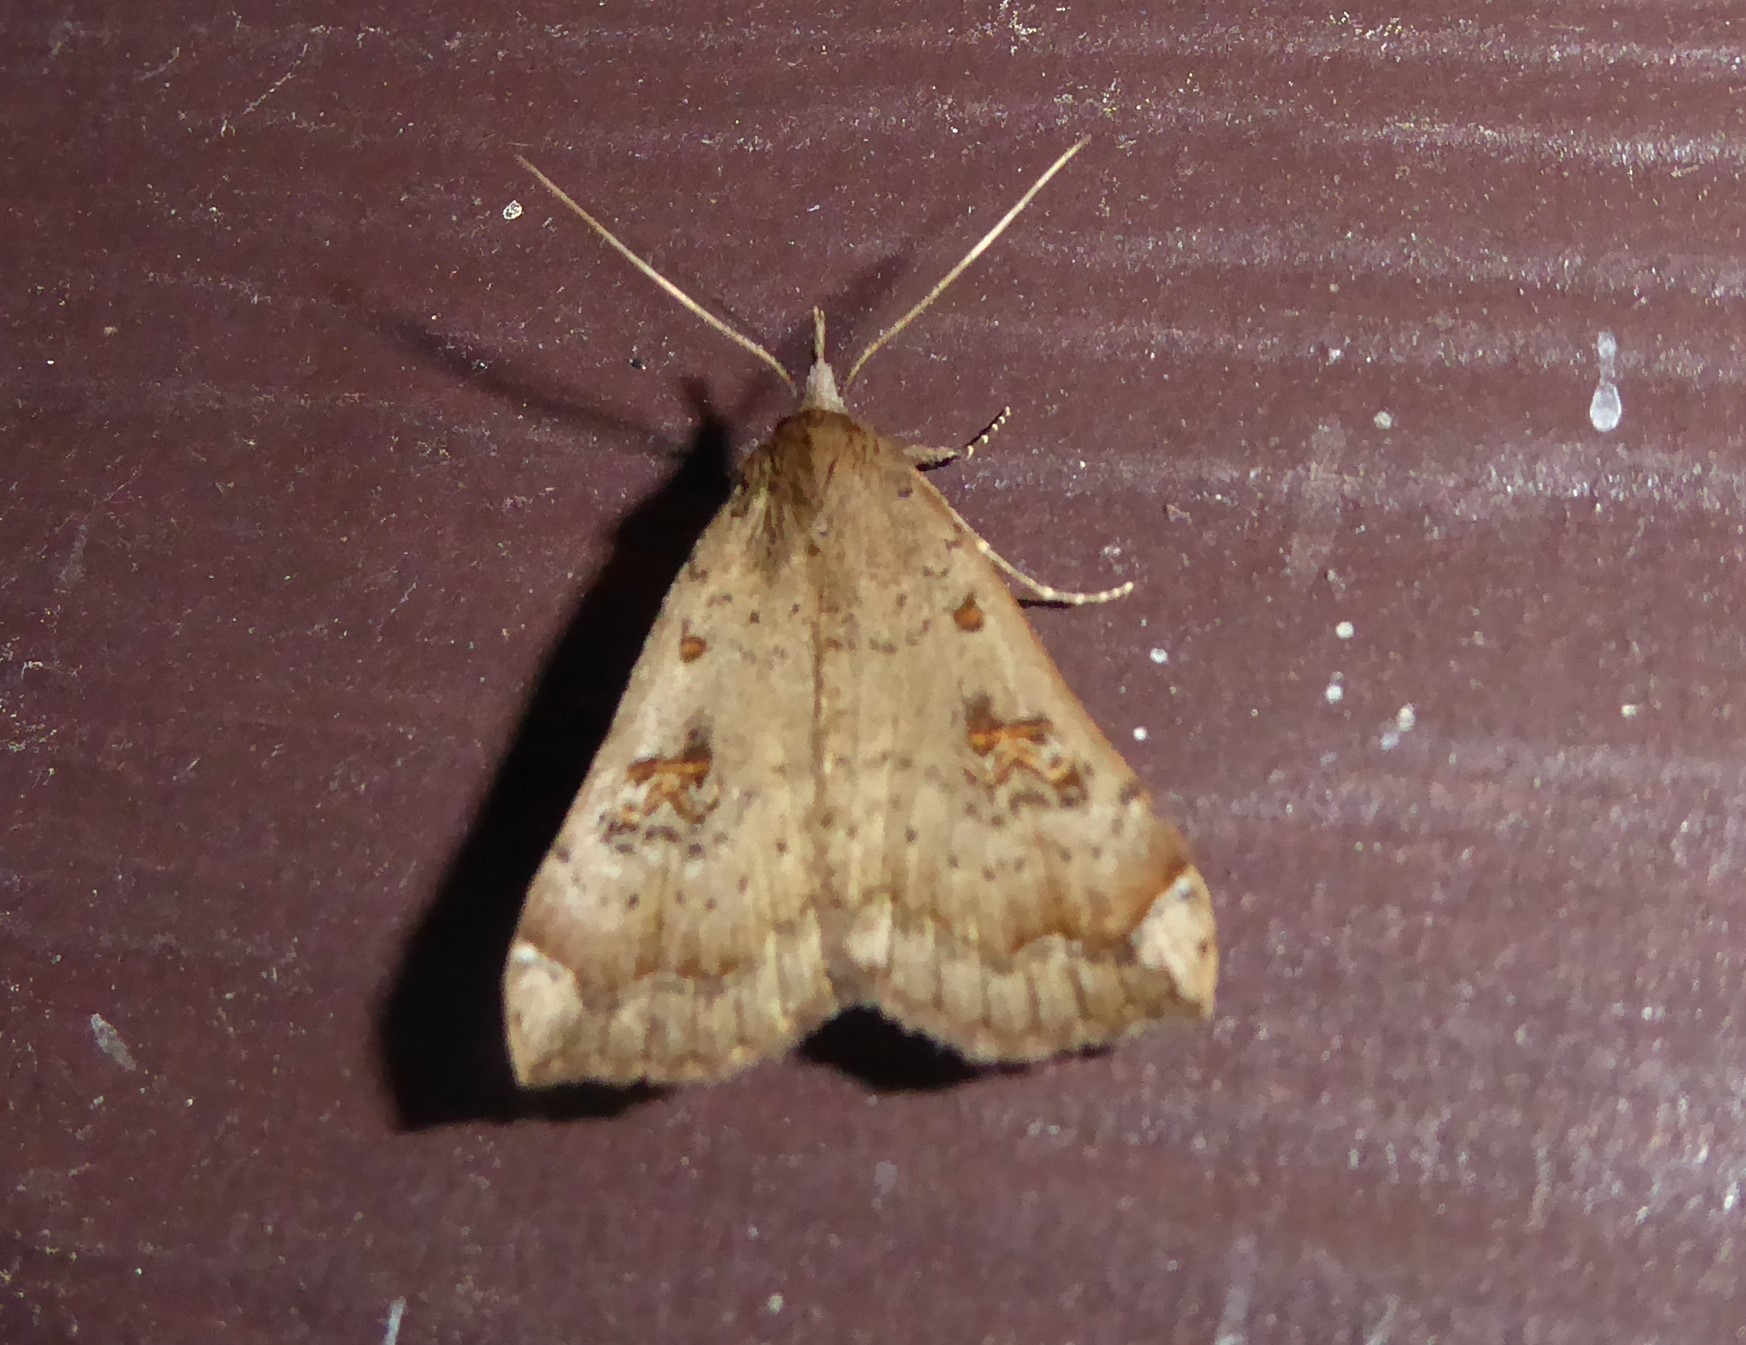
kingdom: Animalia
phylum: Arthropoda
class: Insecta
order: Lepidoptera
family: Erebidae
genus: Rhapsa
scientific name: Rhapsa scotosialis
